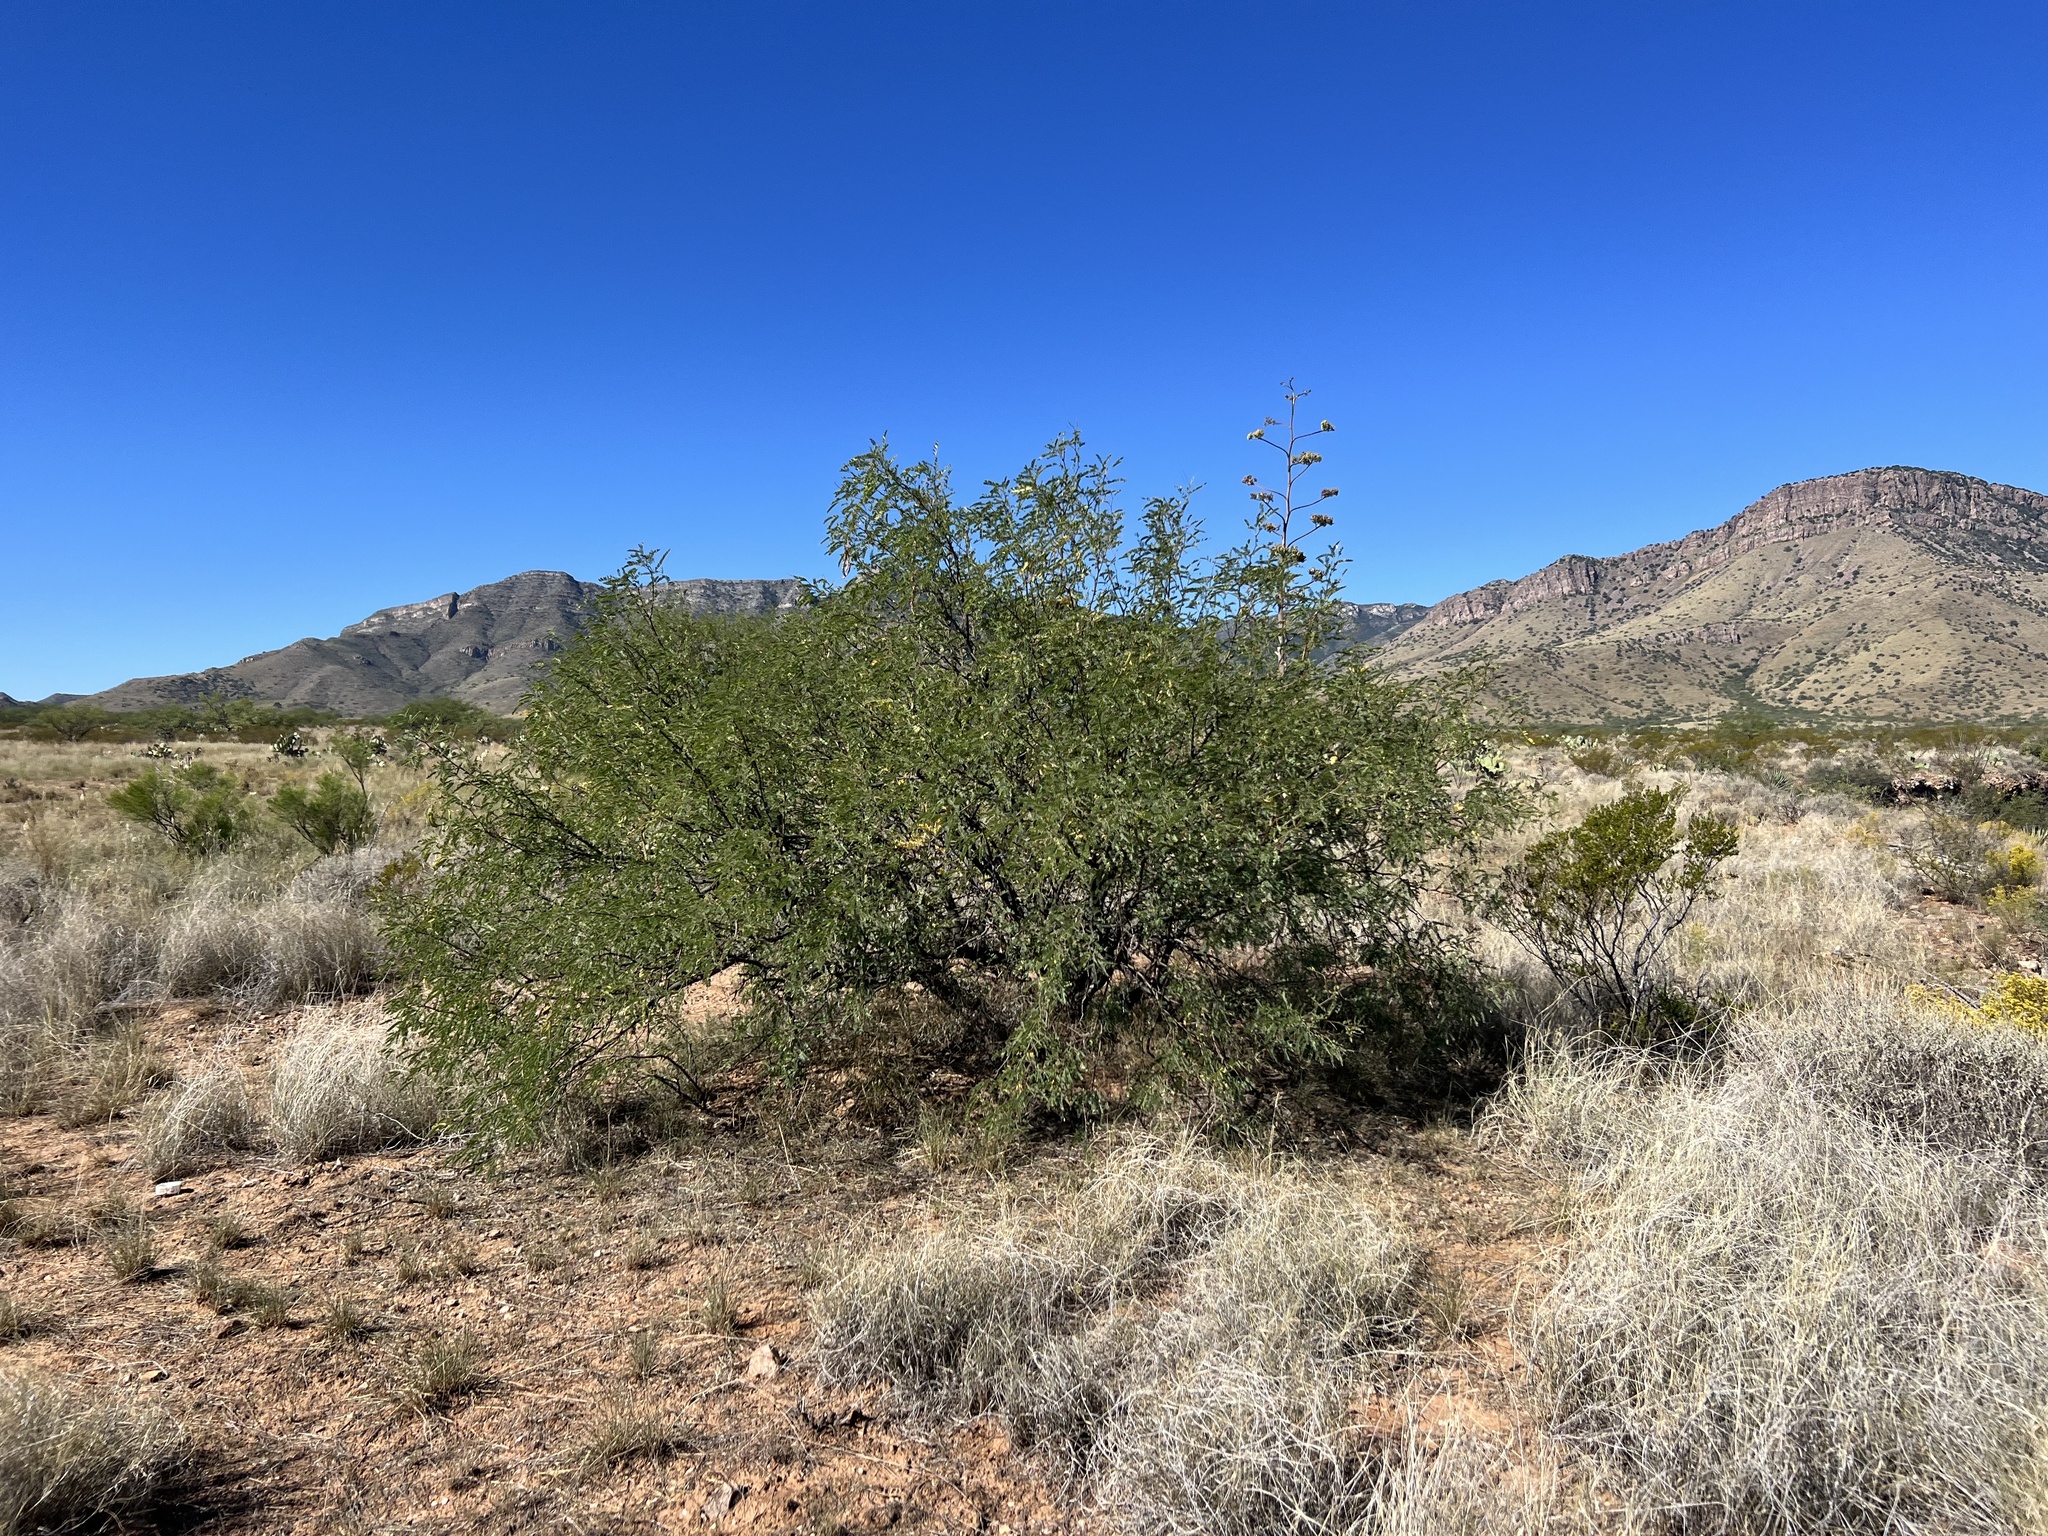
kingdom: Plantae
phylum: Tracheophyta
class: Magnoliopsida
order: Fabales
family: Fabaceae
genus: Prosopis
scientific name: Prosopis velutina
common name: Velvet mesquite
